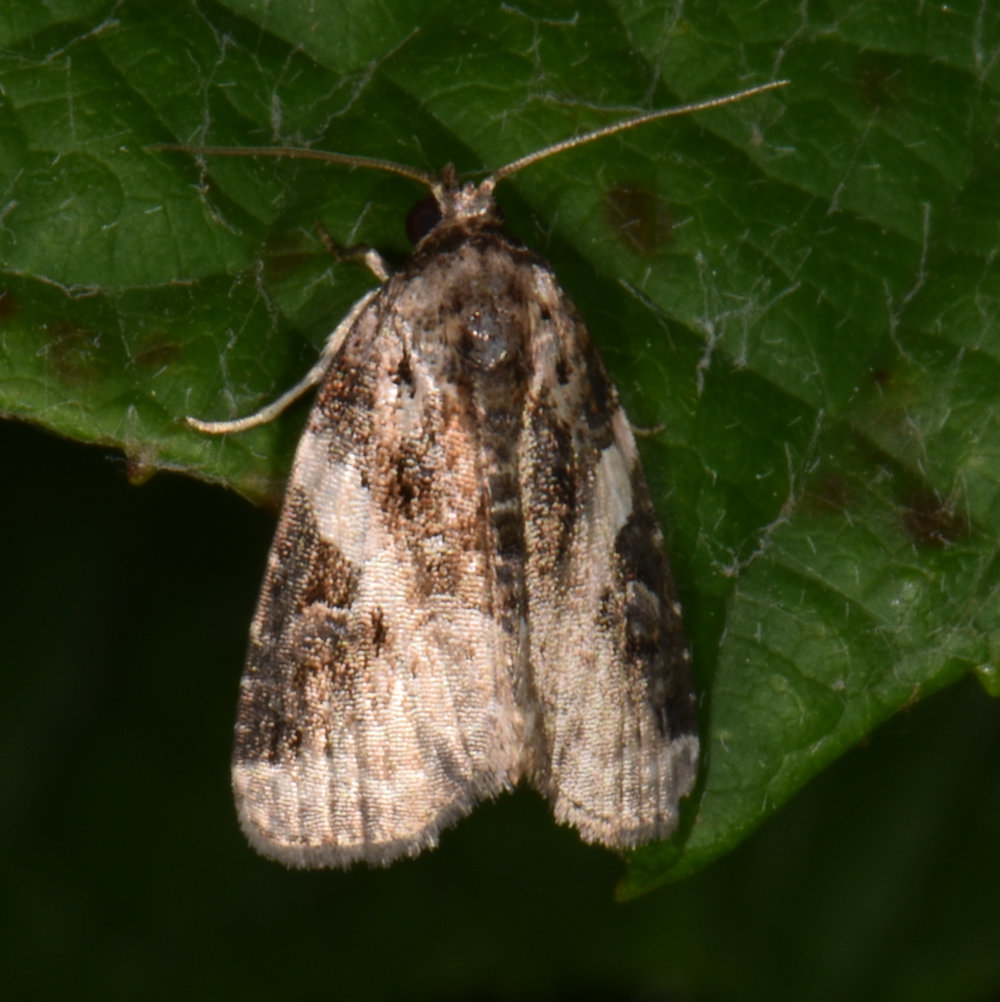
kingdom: Animalia
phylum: Arthropoda
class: Insecta
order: Lepidoptera
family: Noctuidae
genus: Pseudeustrotia
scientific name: Pseudeustrotia carneola
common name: Pink-barred lithacodia moth
